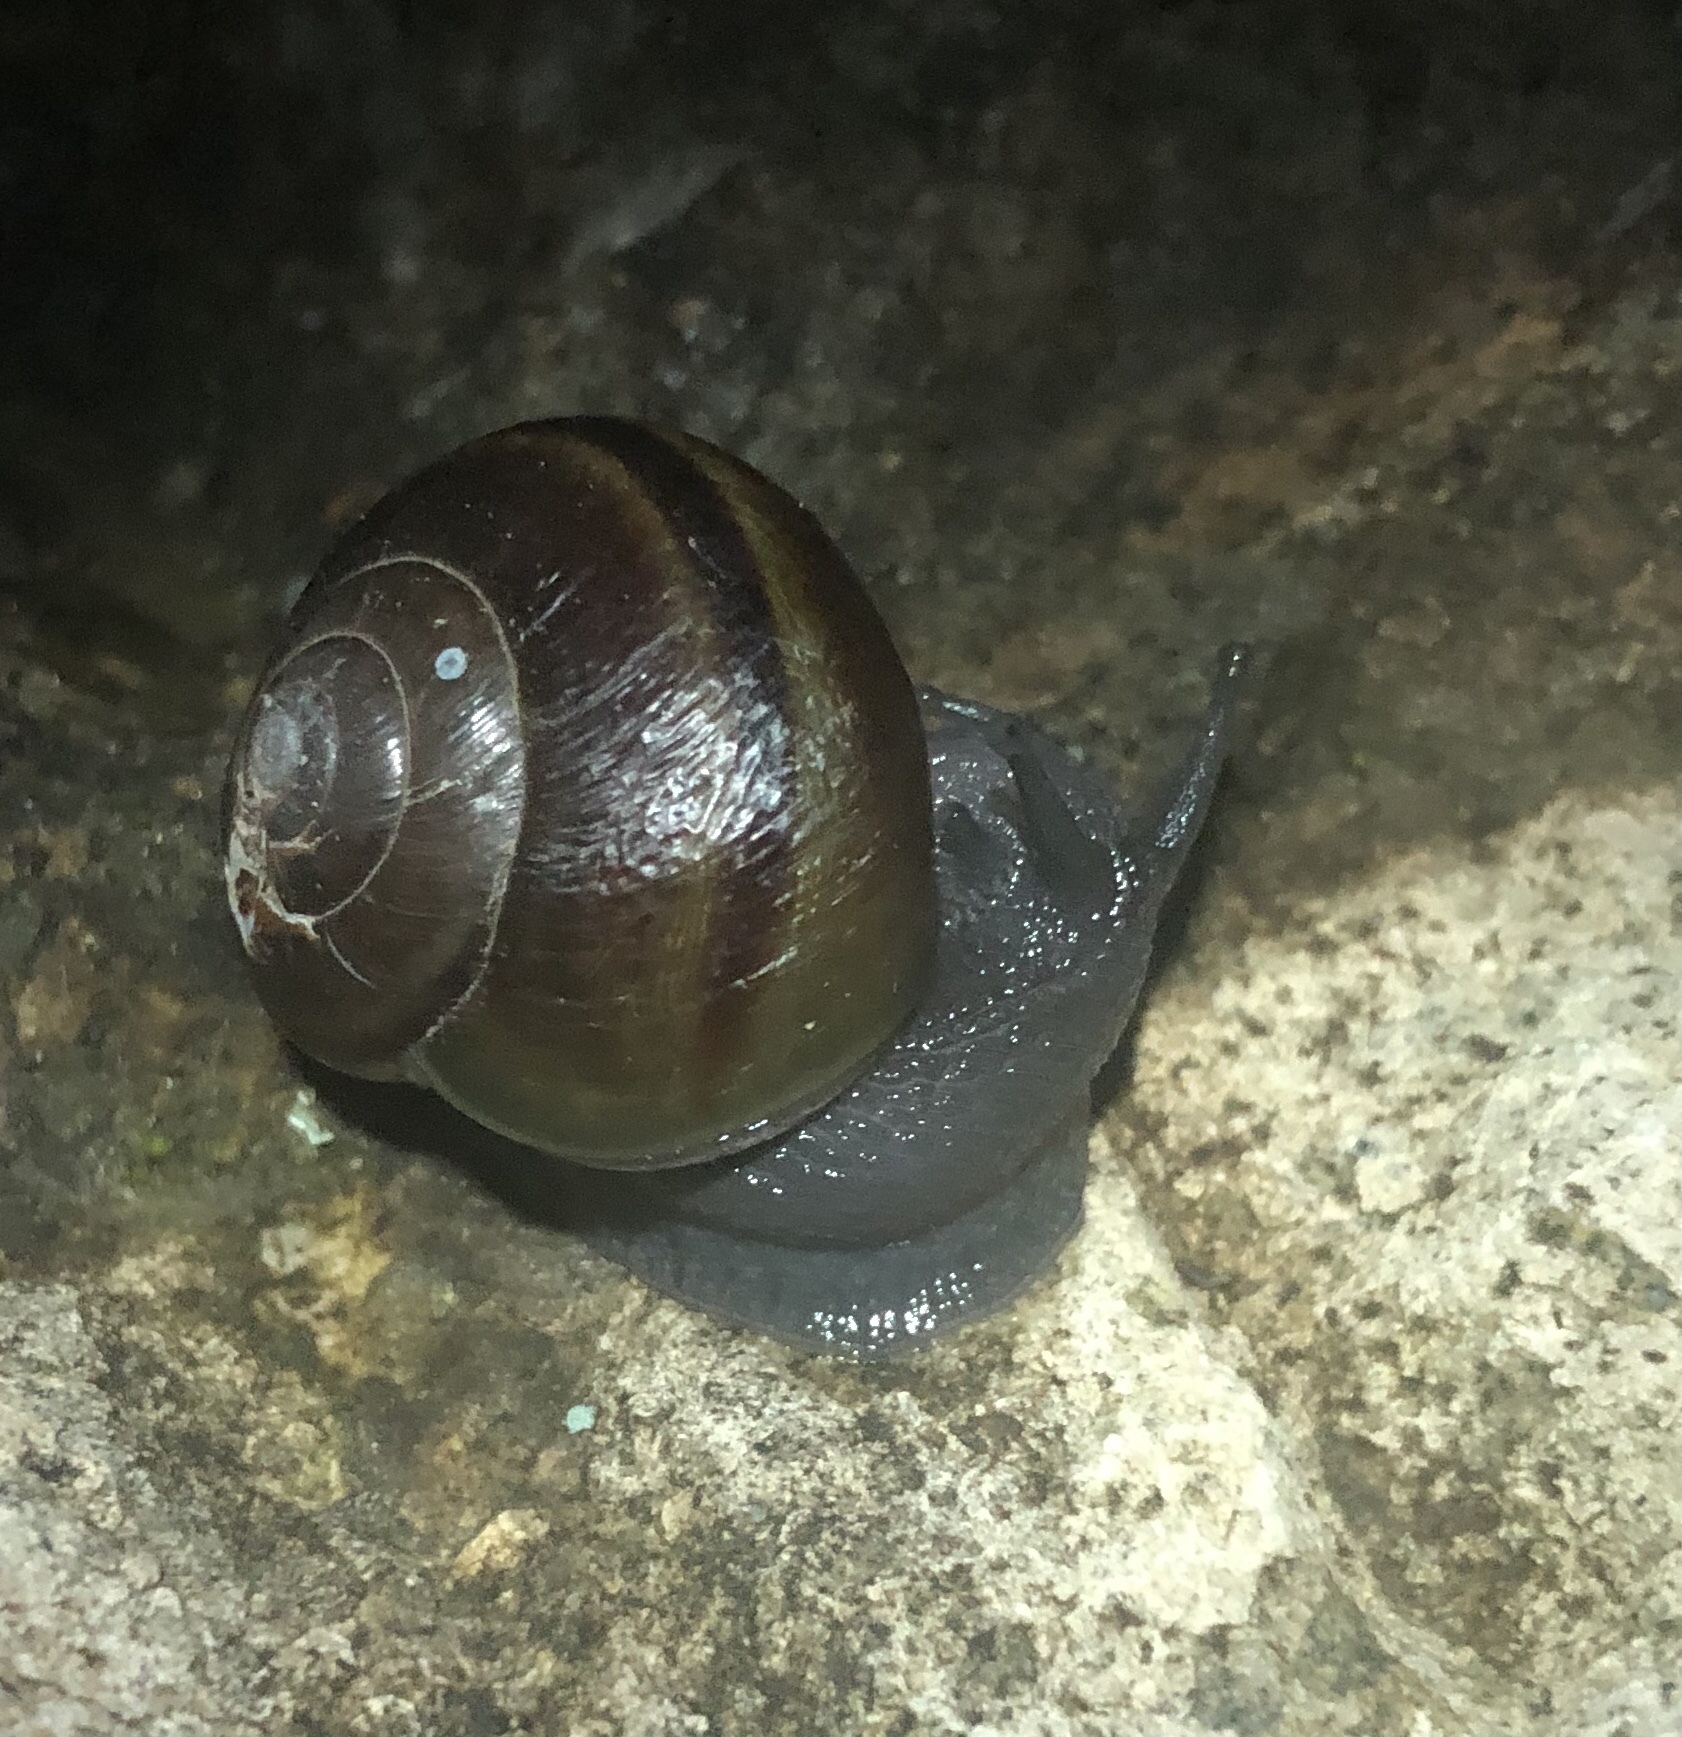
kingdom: Animalia
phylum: Mollusca
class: Gastropoda
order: Stylommatophora
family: Xanthonychidae
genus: Helminthoglypta
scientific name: Helminthoglypta tudiculata
